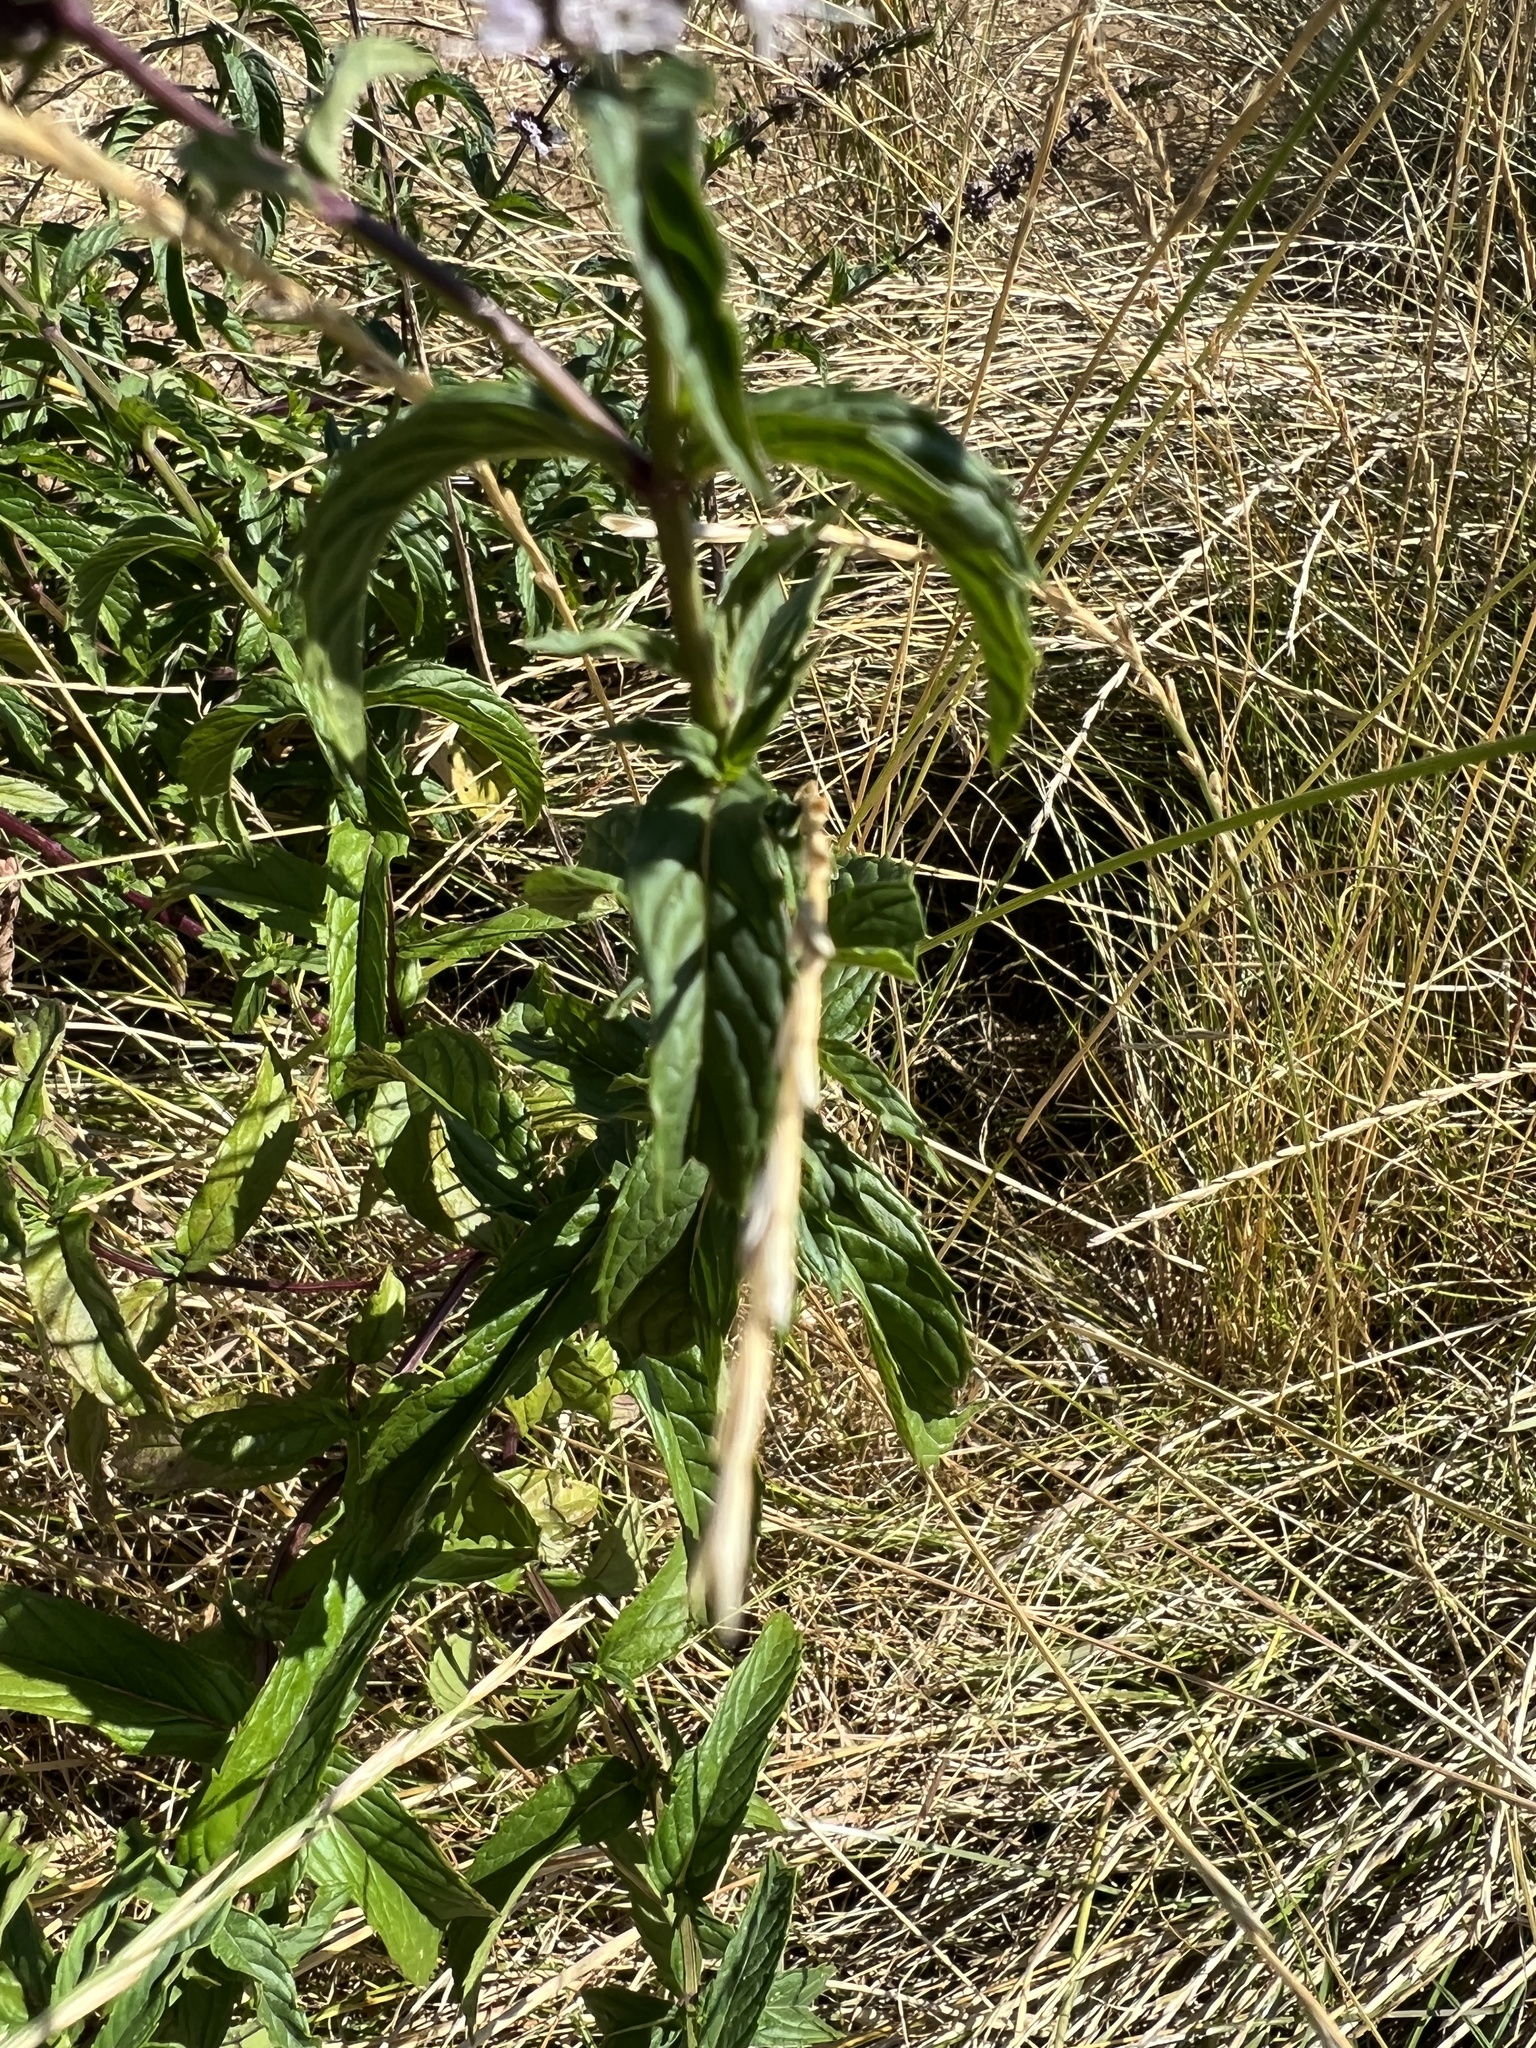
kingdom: Plantae
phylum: Tracheophyta
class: Magnoliopsida
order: Lamiales
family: Lamiaceae
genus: Mentha
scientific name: Mentha spicata
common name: Spearmint
